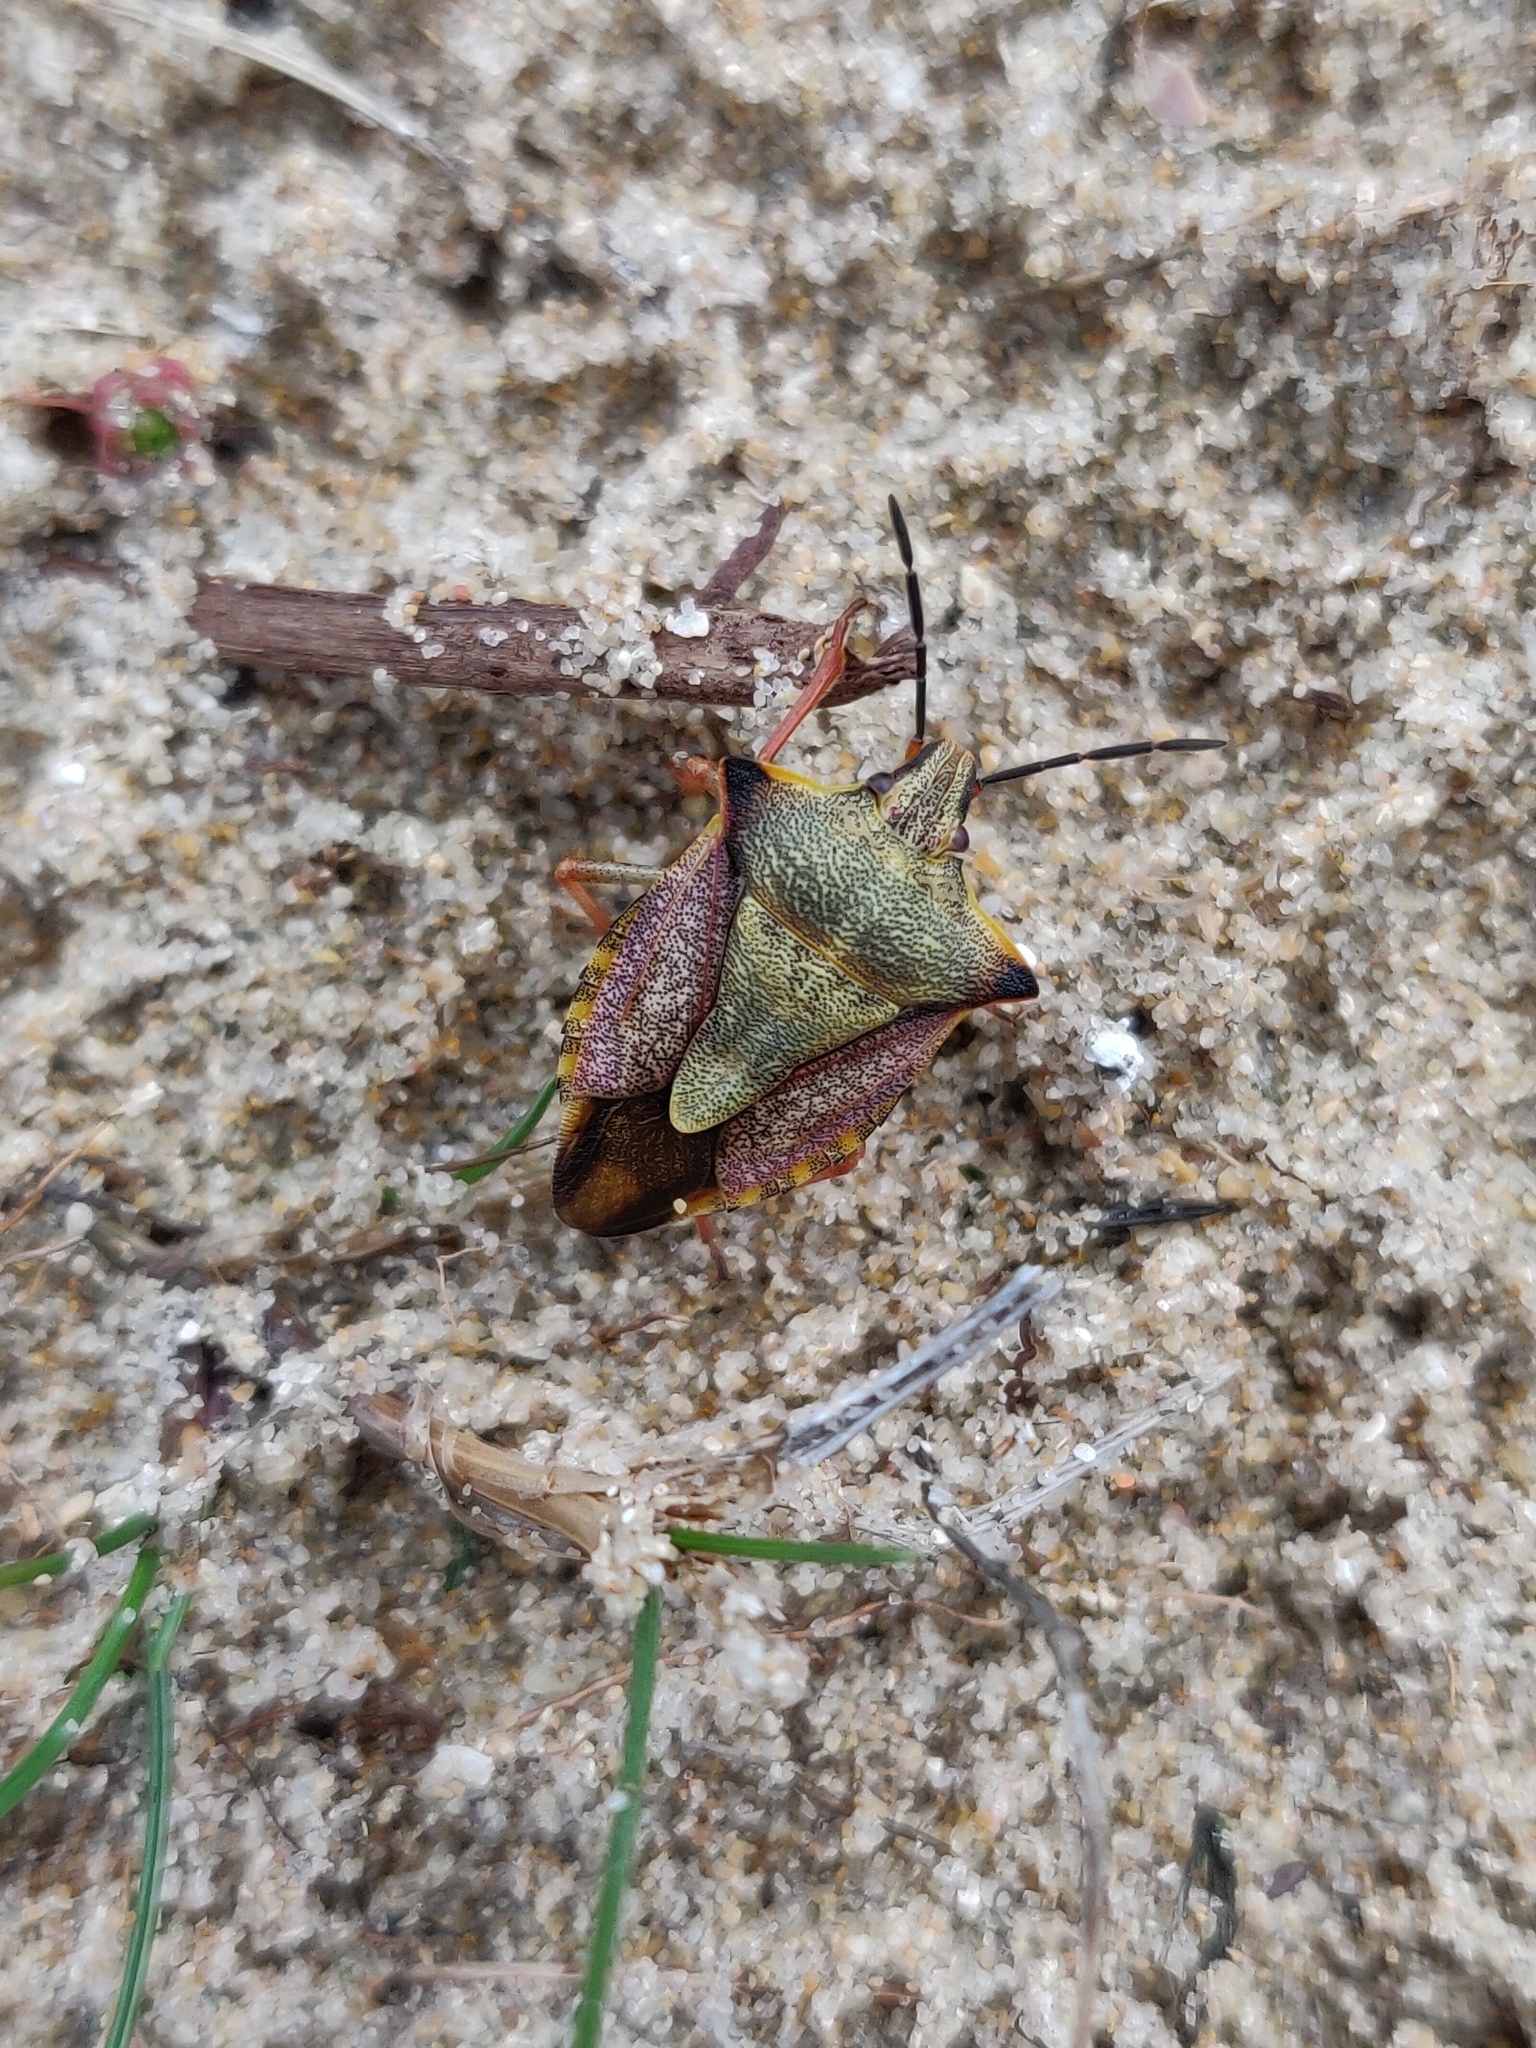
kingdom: Animalia
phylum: Arthropoda
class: Insecta
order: Hemiptera
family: Pentatomidae
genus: Carpocoris
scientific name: Carpocoris mediterraneus
